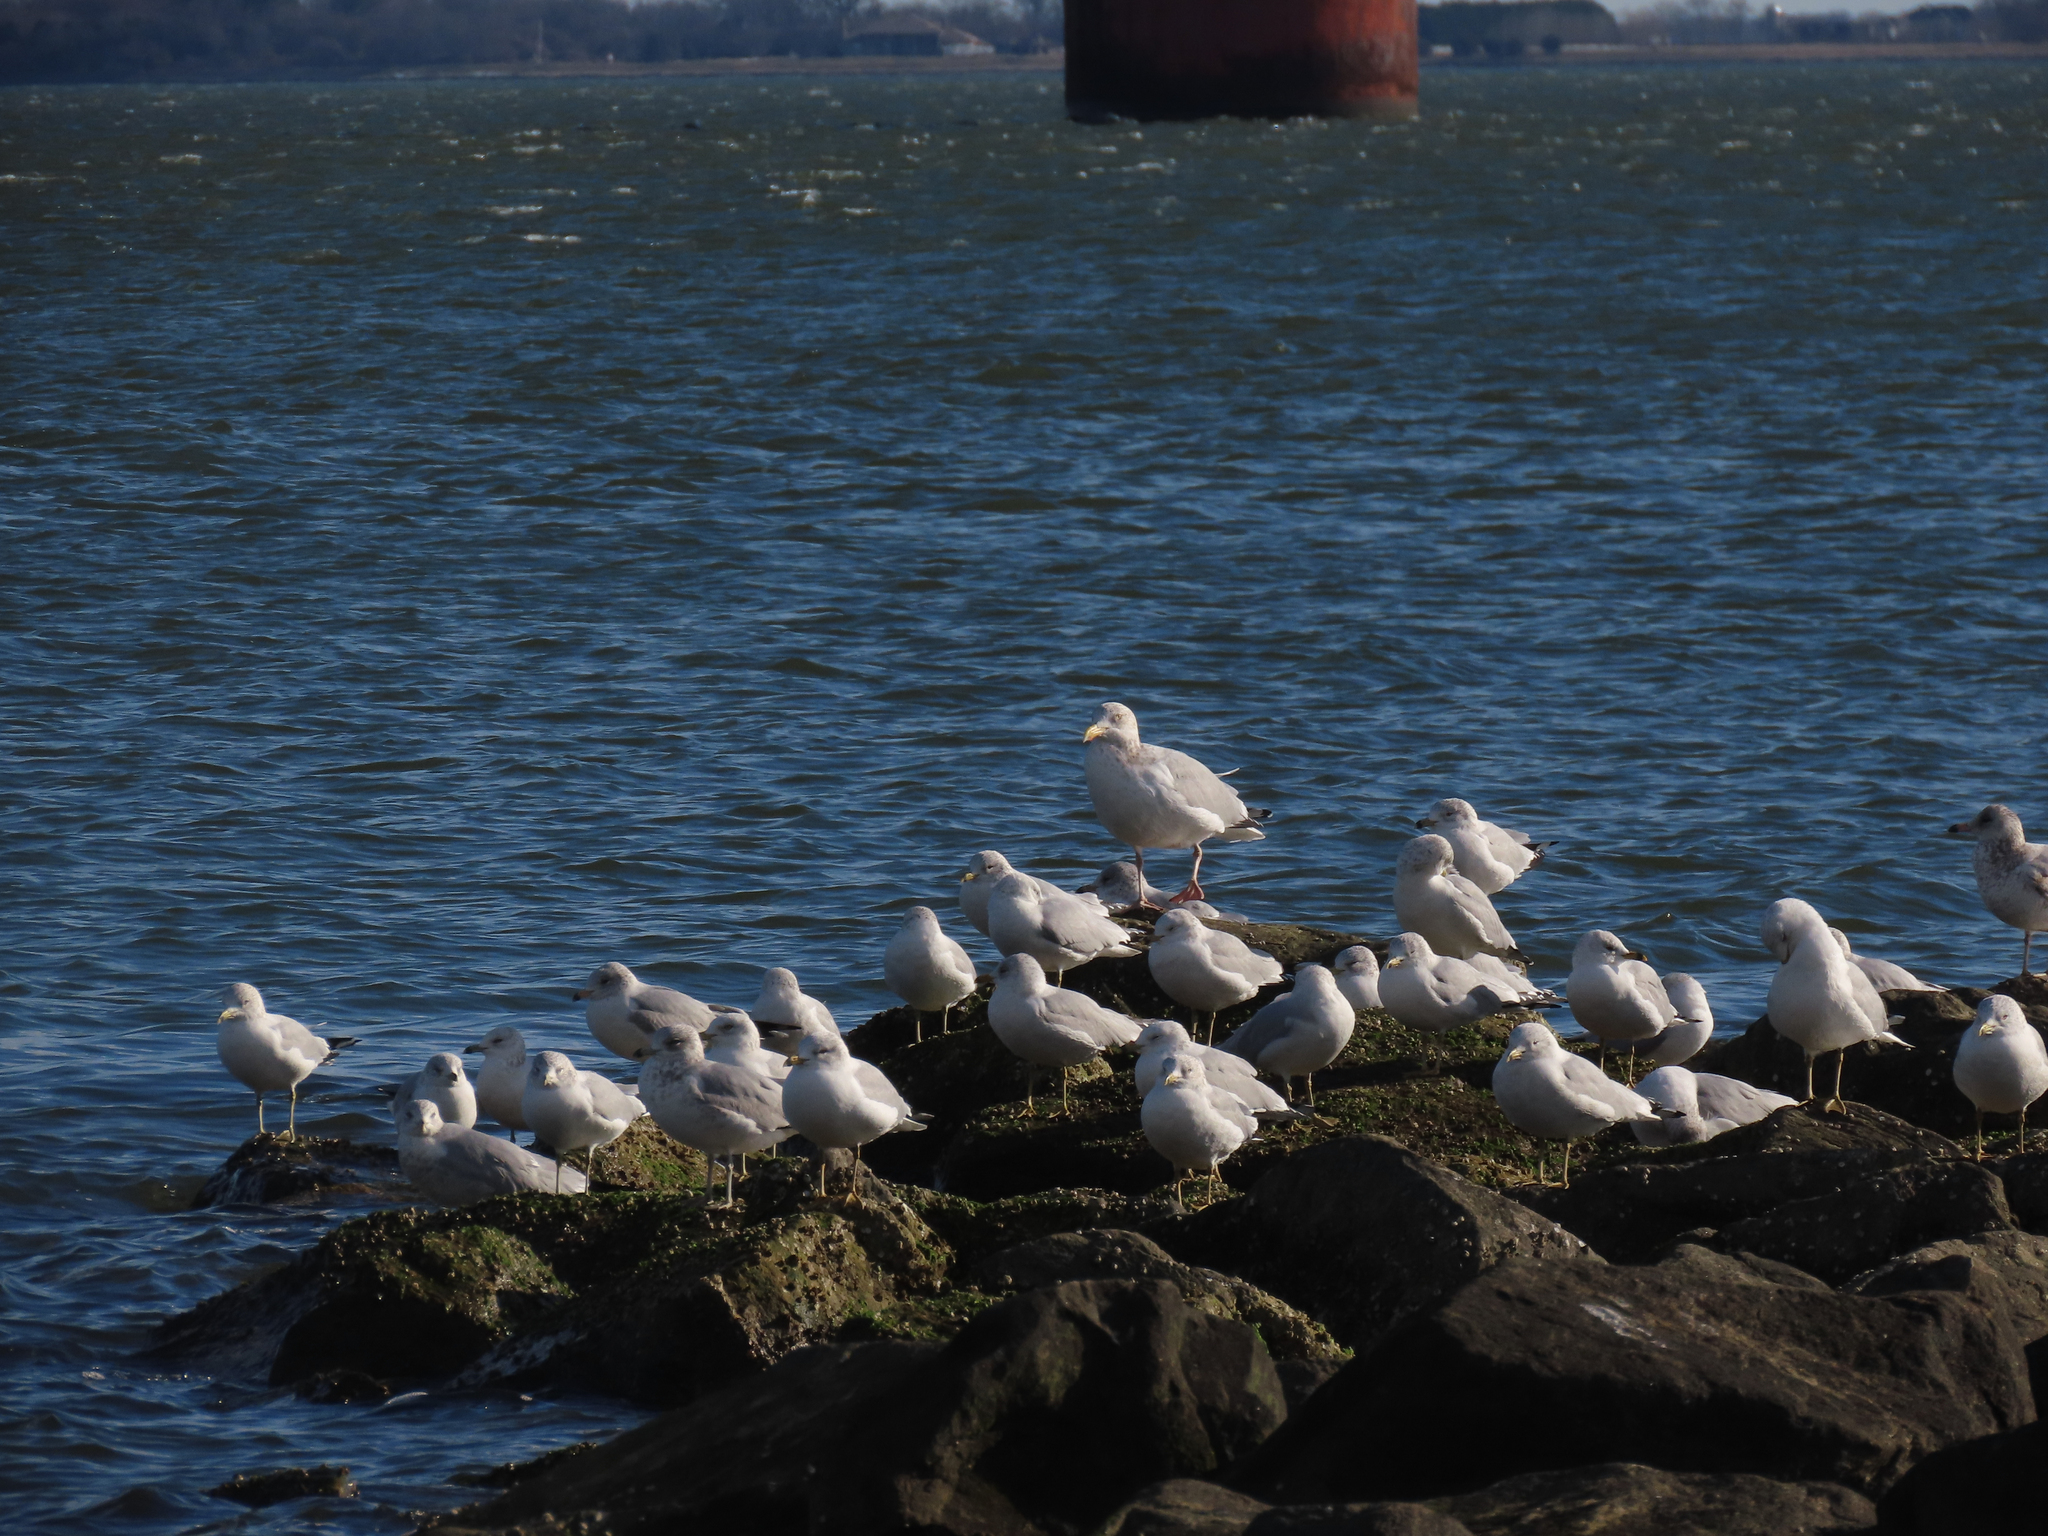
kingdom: Animalia
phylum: Chordata
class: Aves
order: Charadriiformes
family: Laridae
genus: Larus
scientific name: Larus delawarensis
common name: Ring-billed gull
